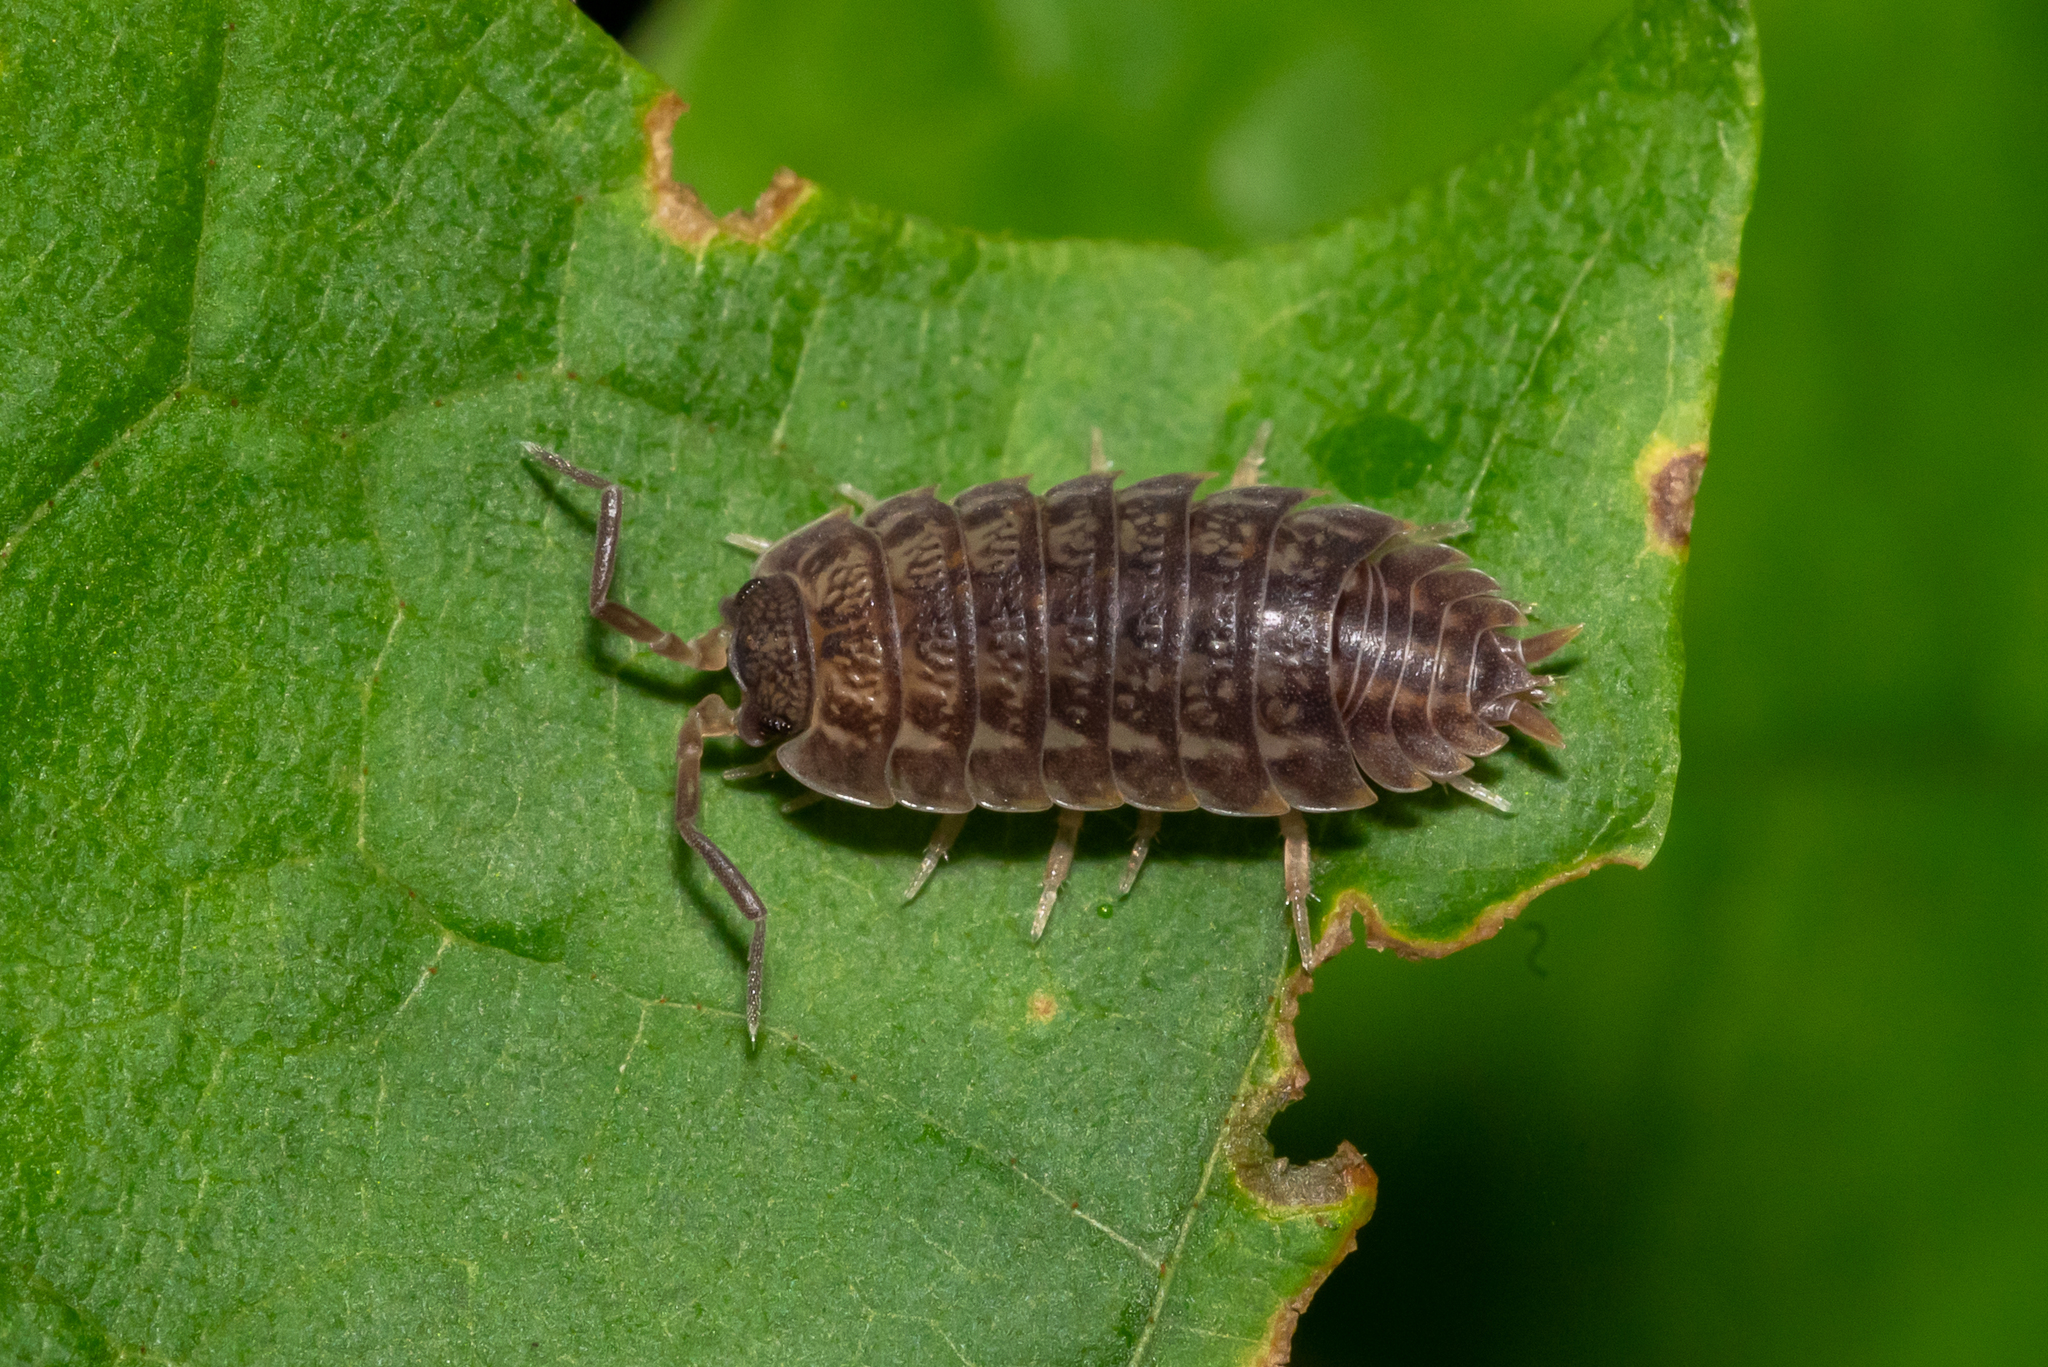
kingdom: Animalia
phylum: Arthropoda
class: Malacostraca
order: Isopoda
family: Trachelipodidae
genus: Trachelipus
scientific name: Trachelipus rathkii
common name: Isopod
